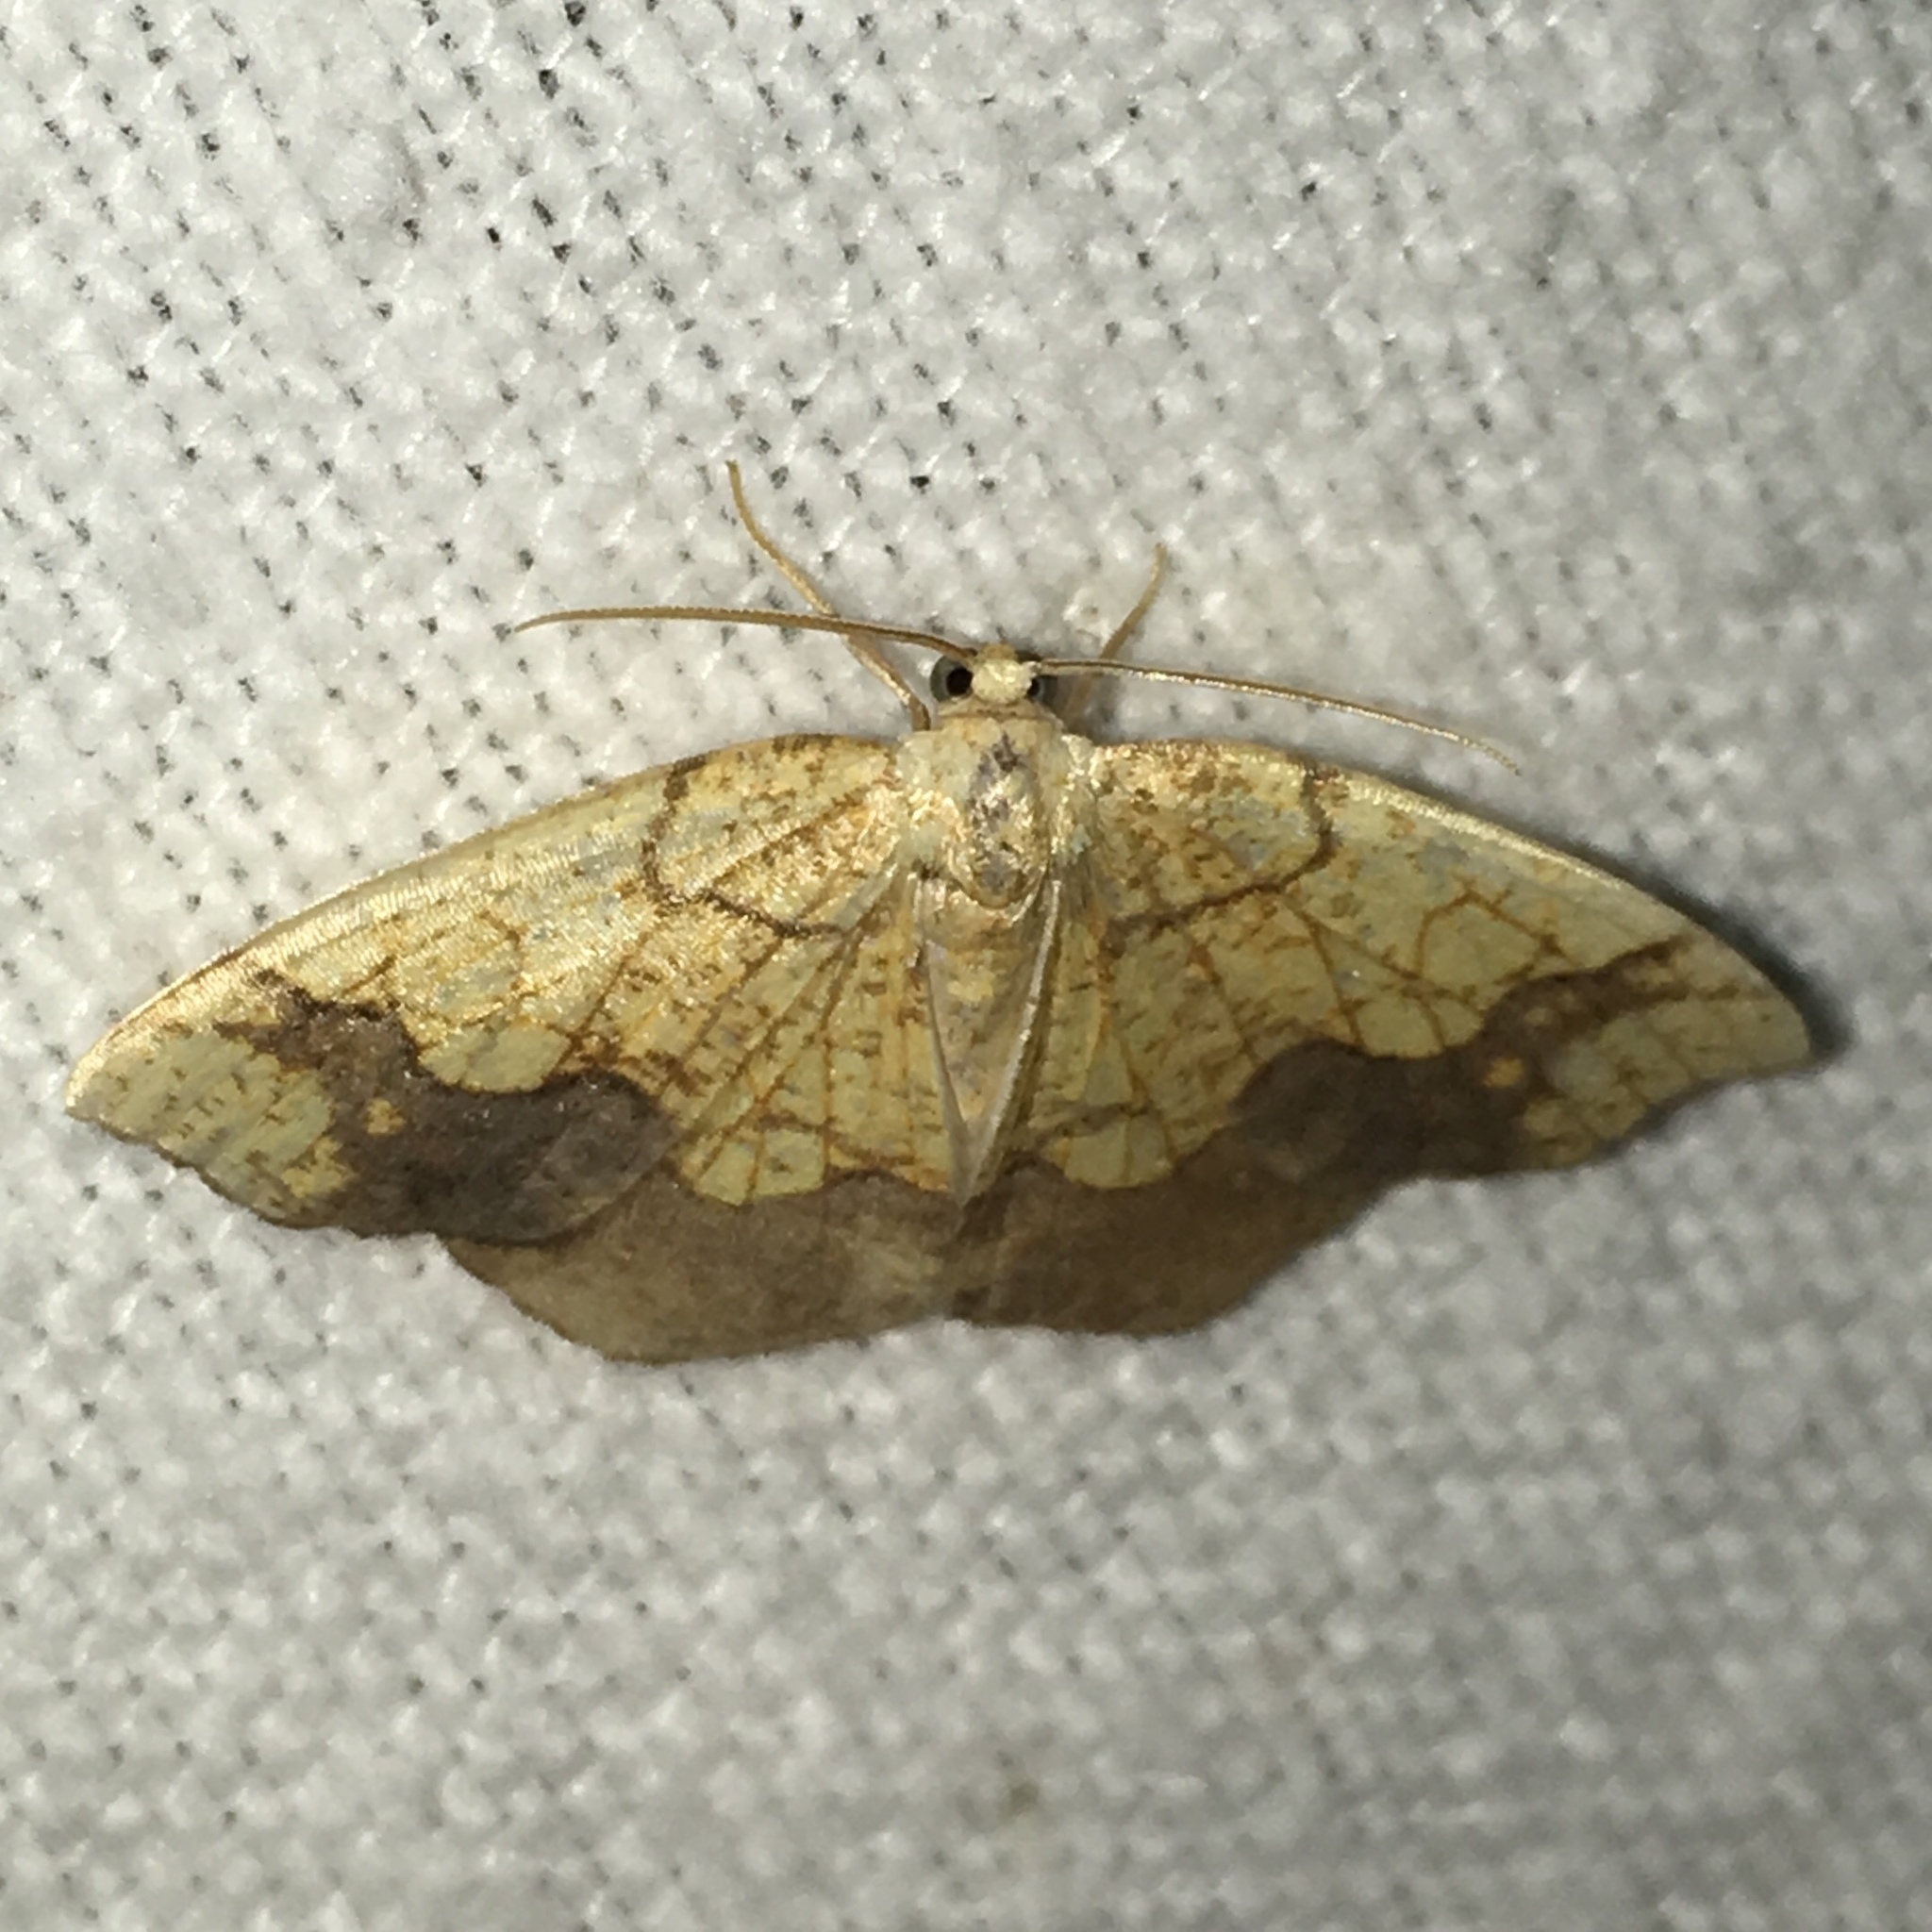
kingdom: Animalia
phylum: Arthropoda
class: Insecta
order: Lepidoptera
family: Geometridae
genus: Nematocampa
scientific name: Nematocampa resistaria
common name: Horned spanworm moth
